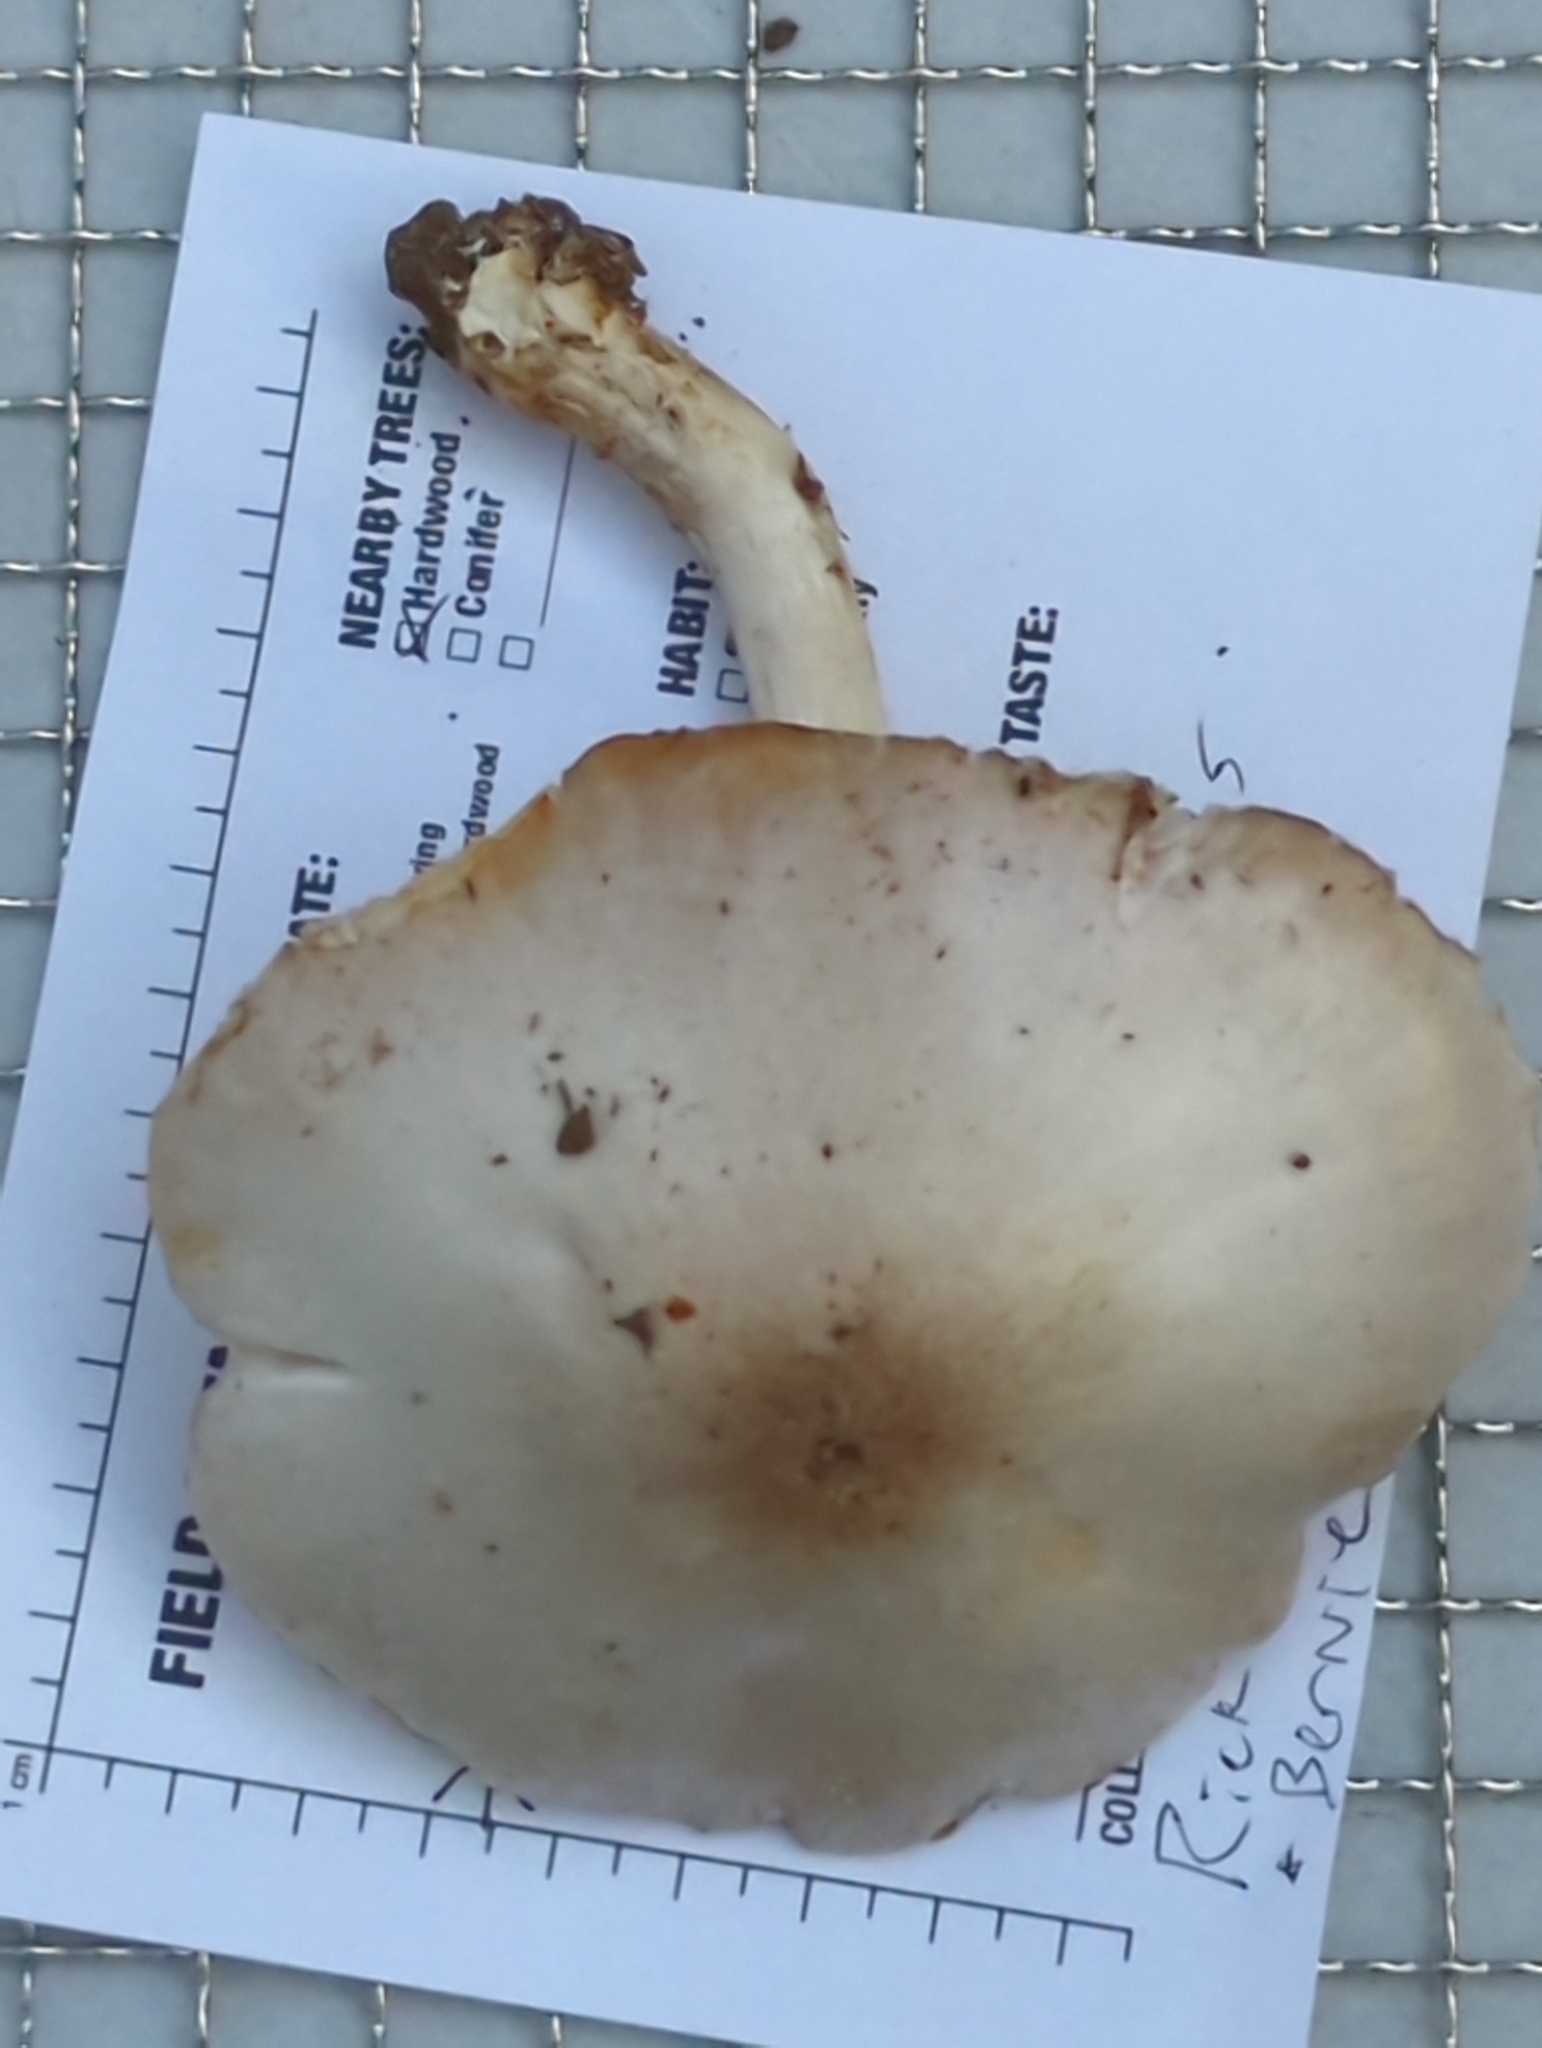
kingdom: Fungi
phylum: Basidiomycota
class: Agaricomycetes
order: Agaricales
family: Pluteaceae
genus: Pluteus
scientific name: Pluteus petasatus
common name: Scaly shield
